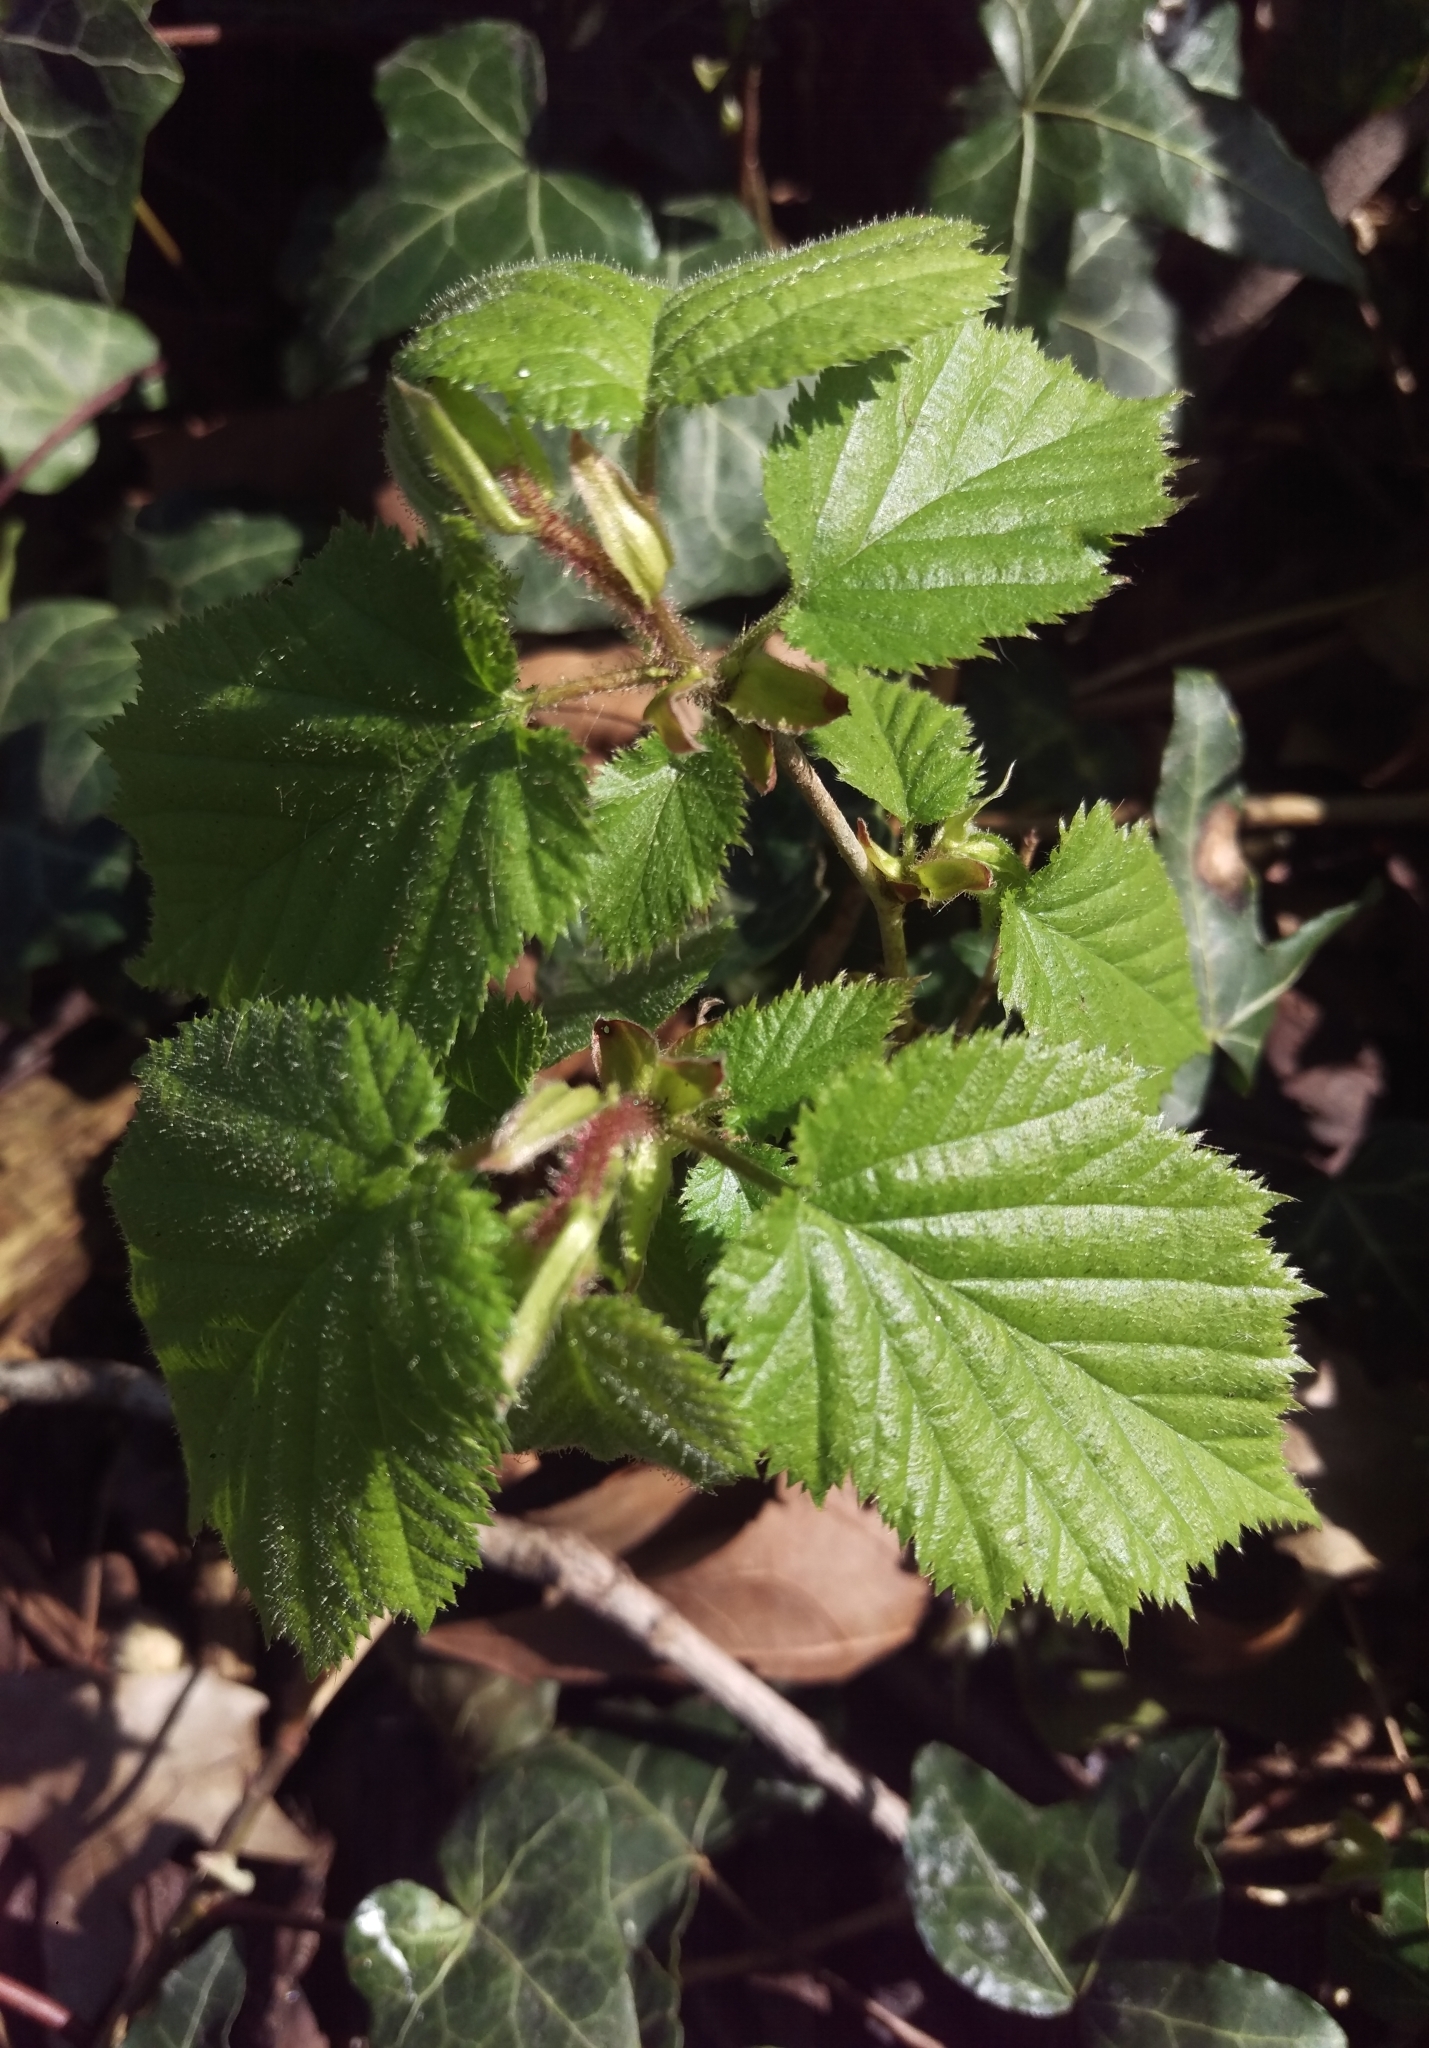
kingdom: Plantae
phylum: Tracheophyta
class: Magnoliopsida
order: Fagales
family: Betulaceae
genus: Corylus
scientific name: Corylus avellana
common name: European hazel
